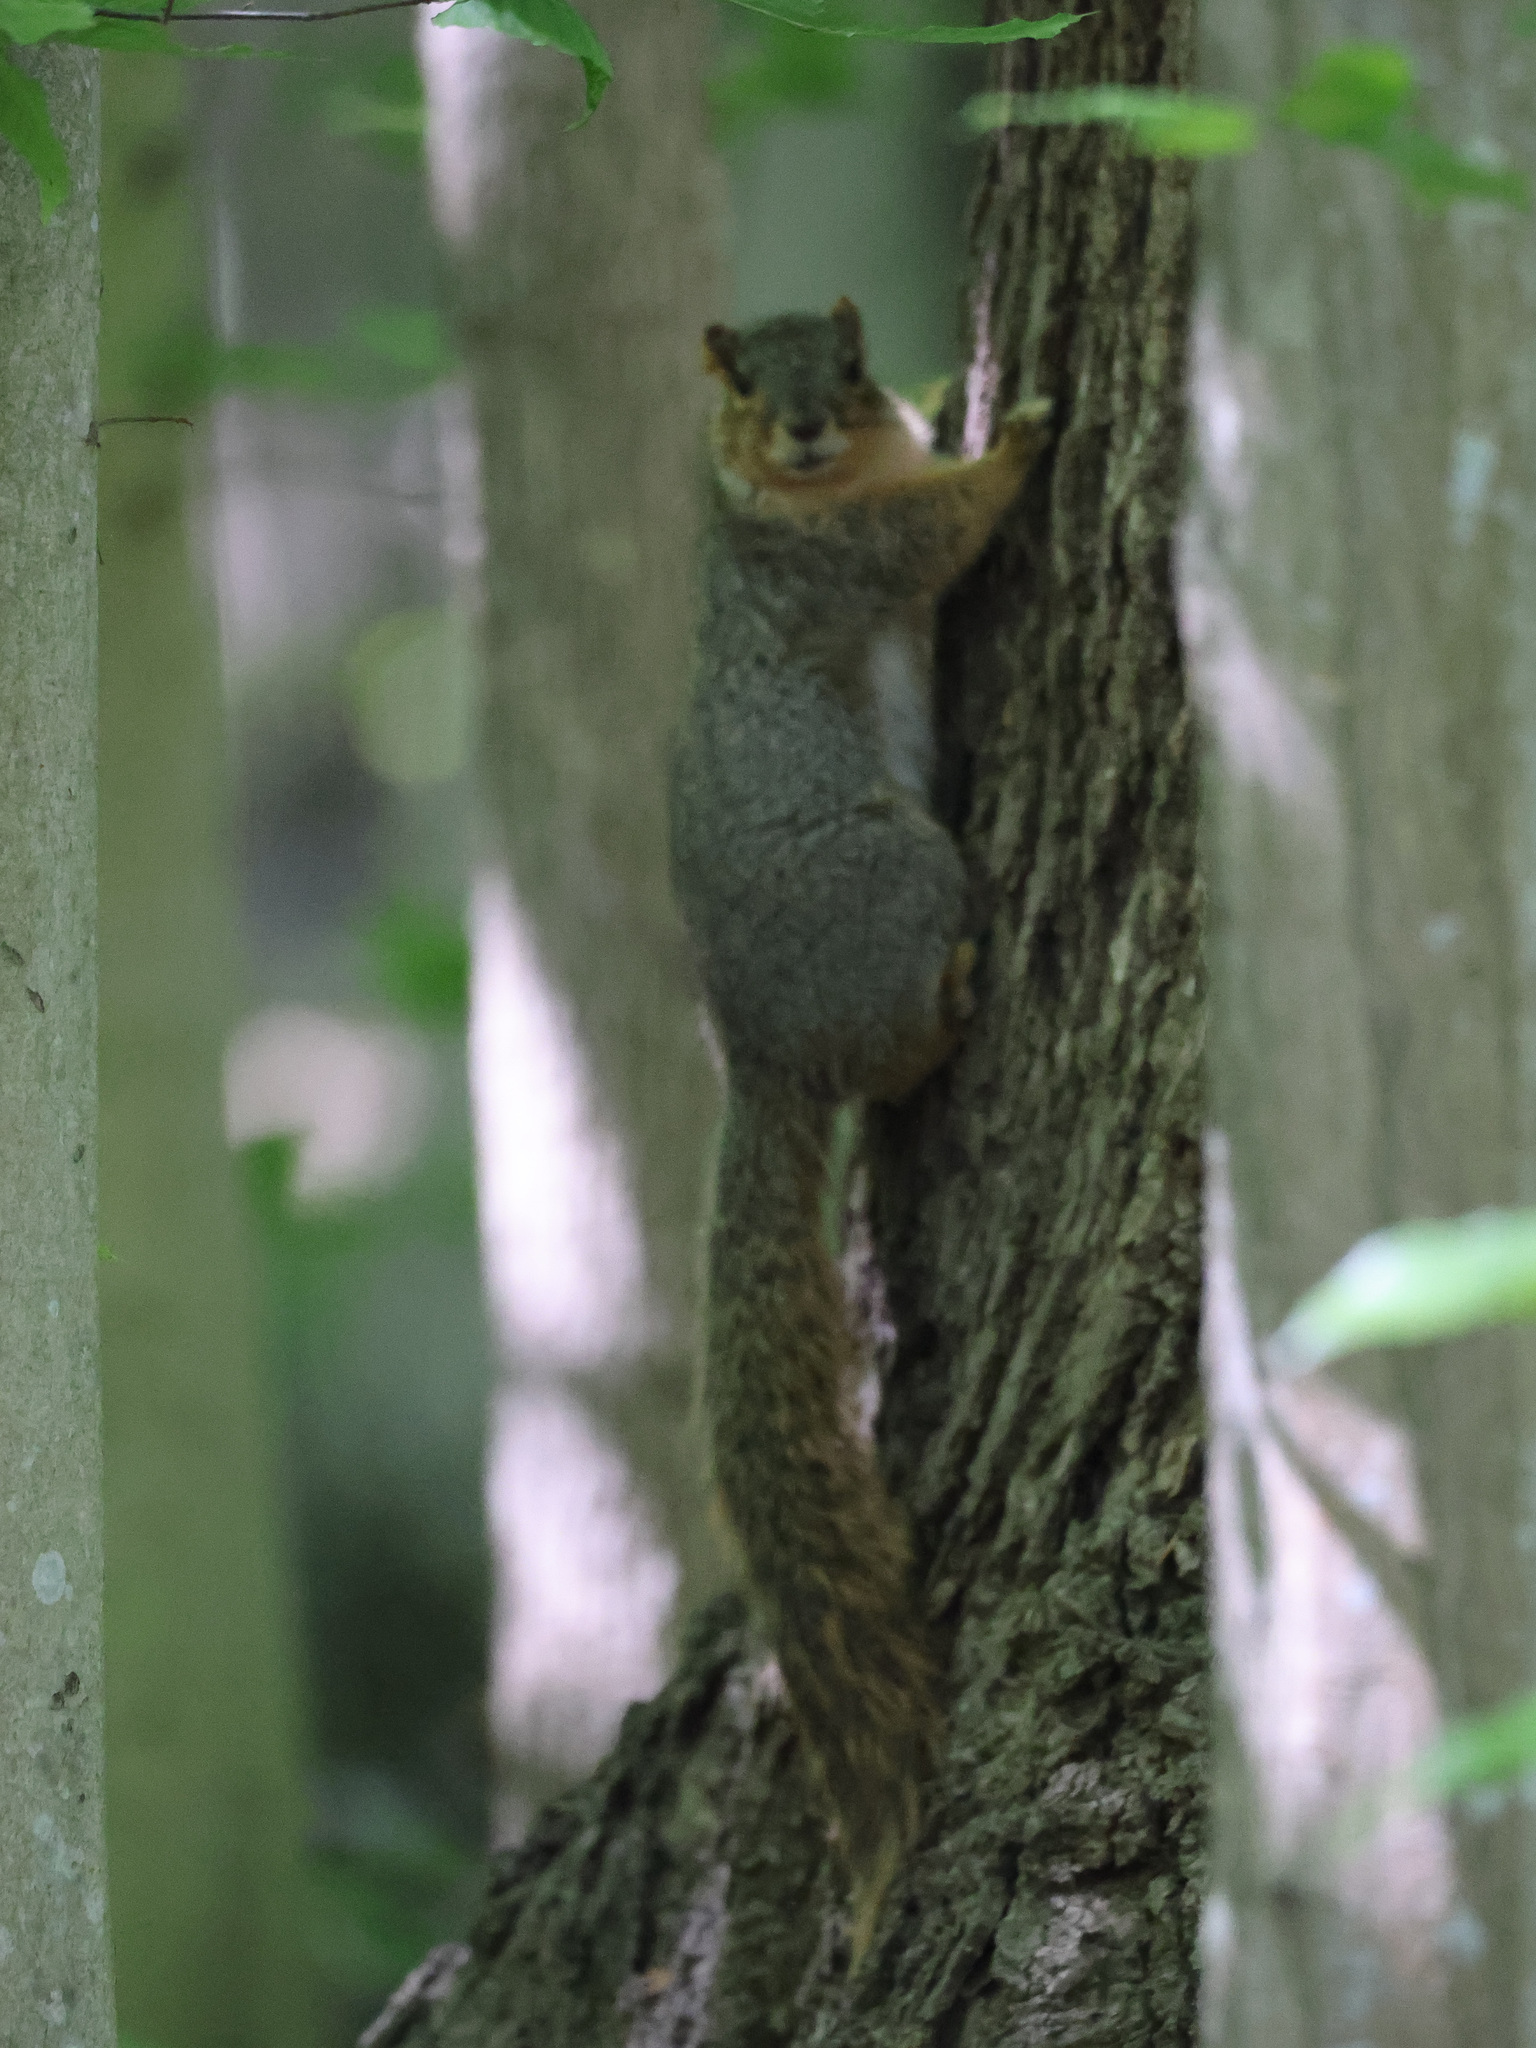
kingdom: Animalia
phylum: Chordata
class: Mammalia
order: Rodentia
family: Sciuridae
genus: Sciurus
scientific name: Sciurus niger
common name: Fox squirrel
